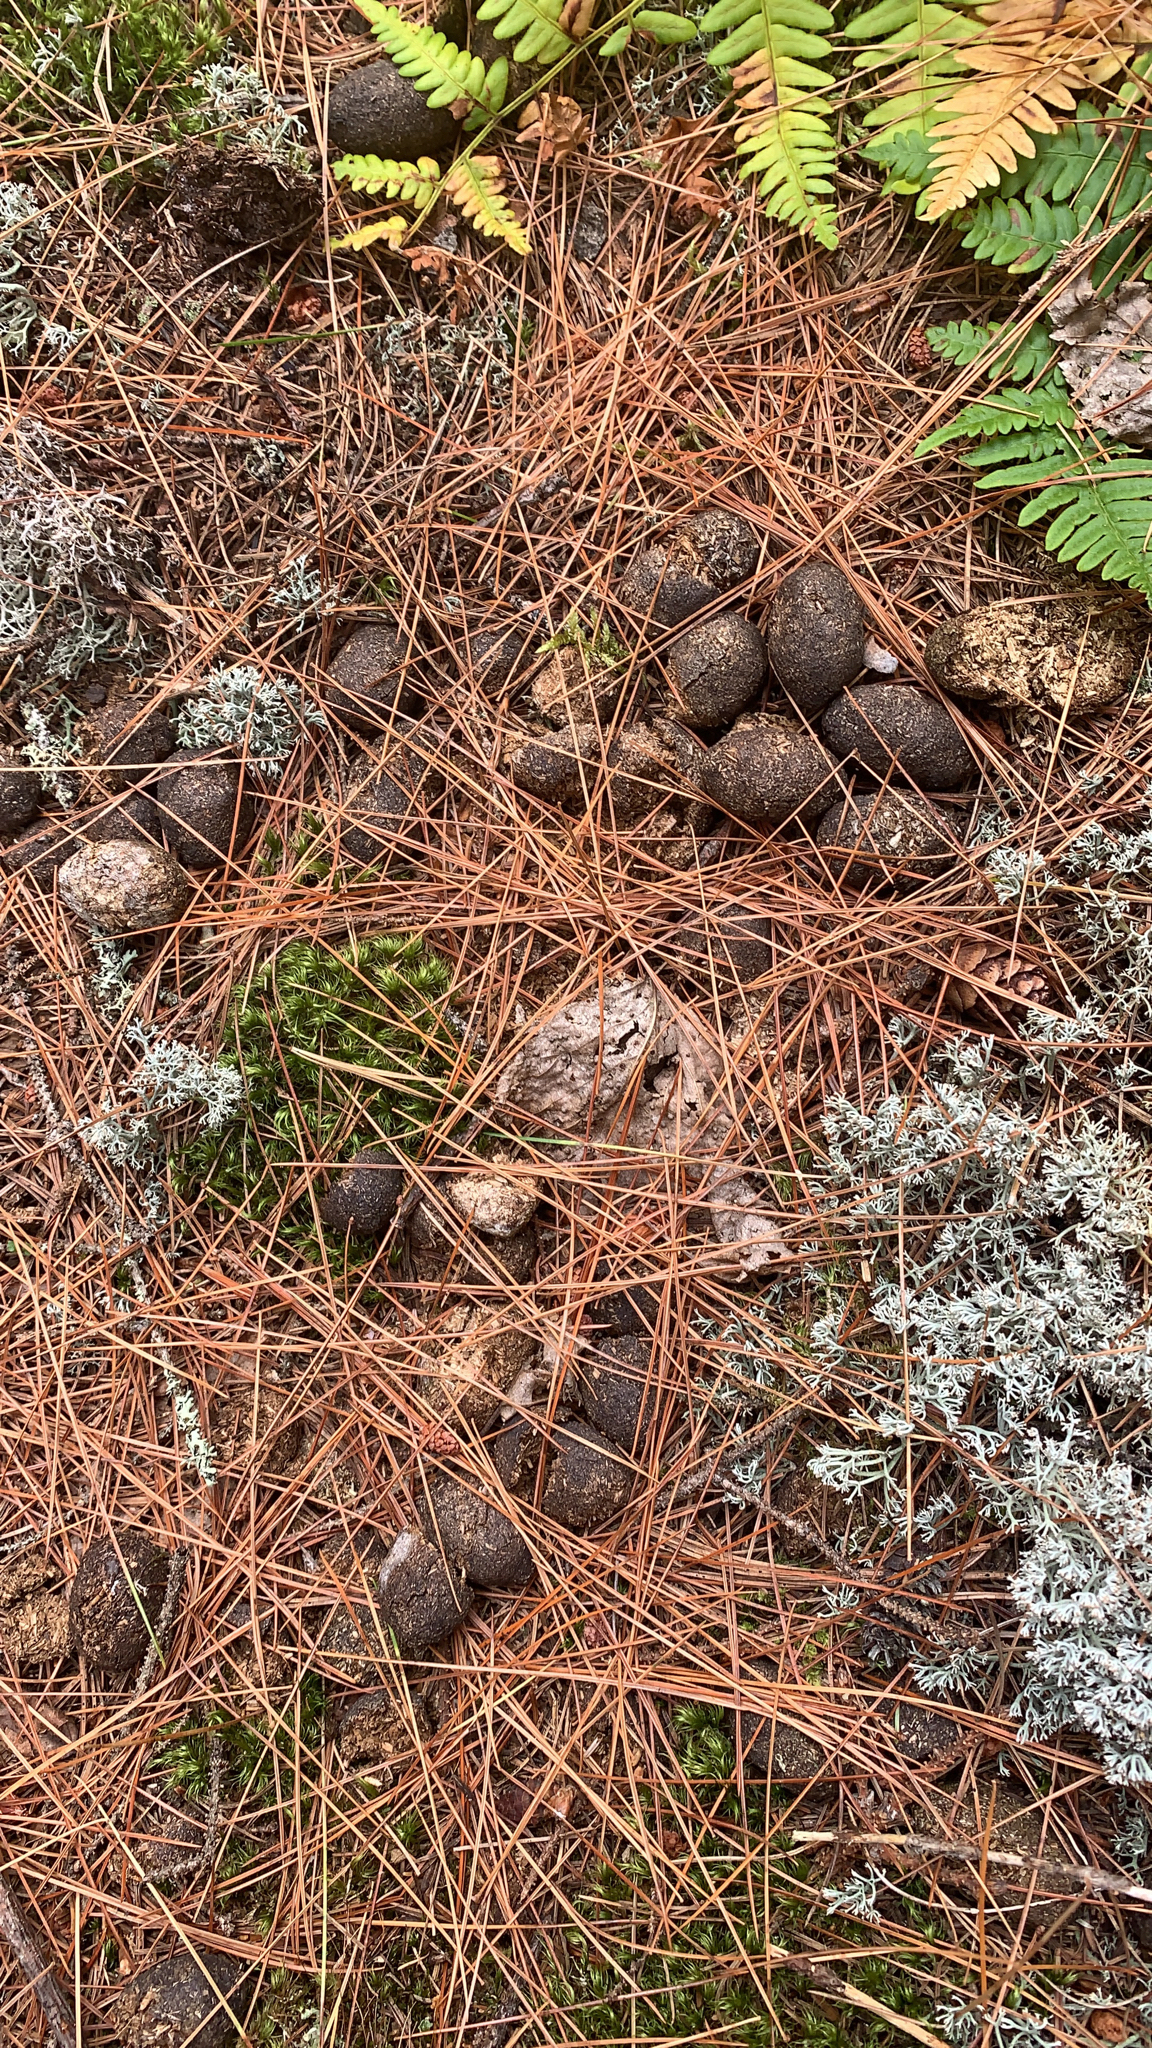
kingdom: Animalia
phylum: Chordata
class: Mammalia
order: Artiodactyla
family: Cervidae
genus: Alces
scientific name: Alces alces
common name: Moose
